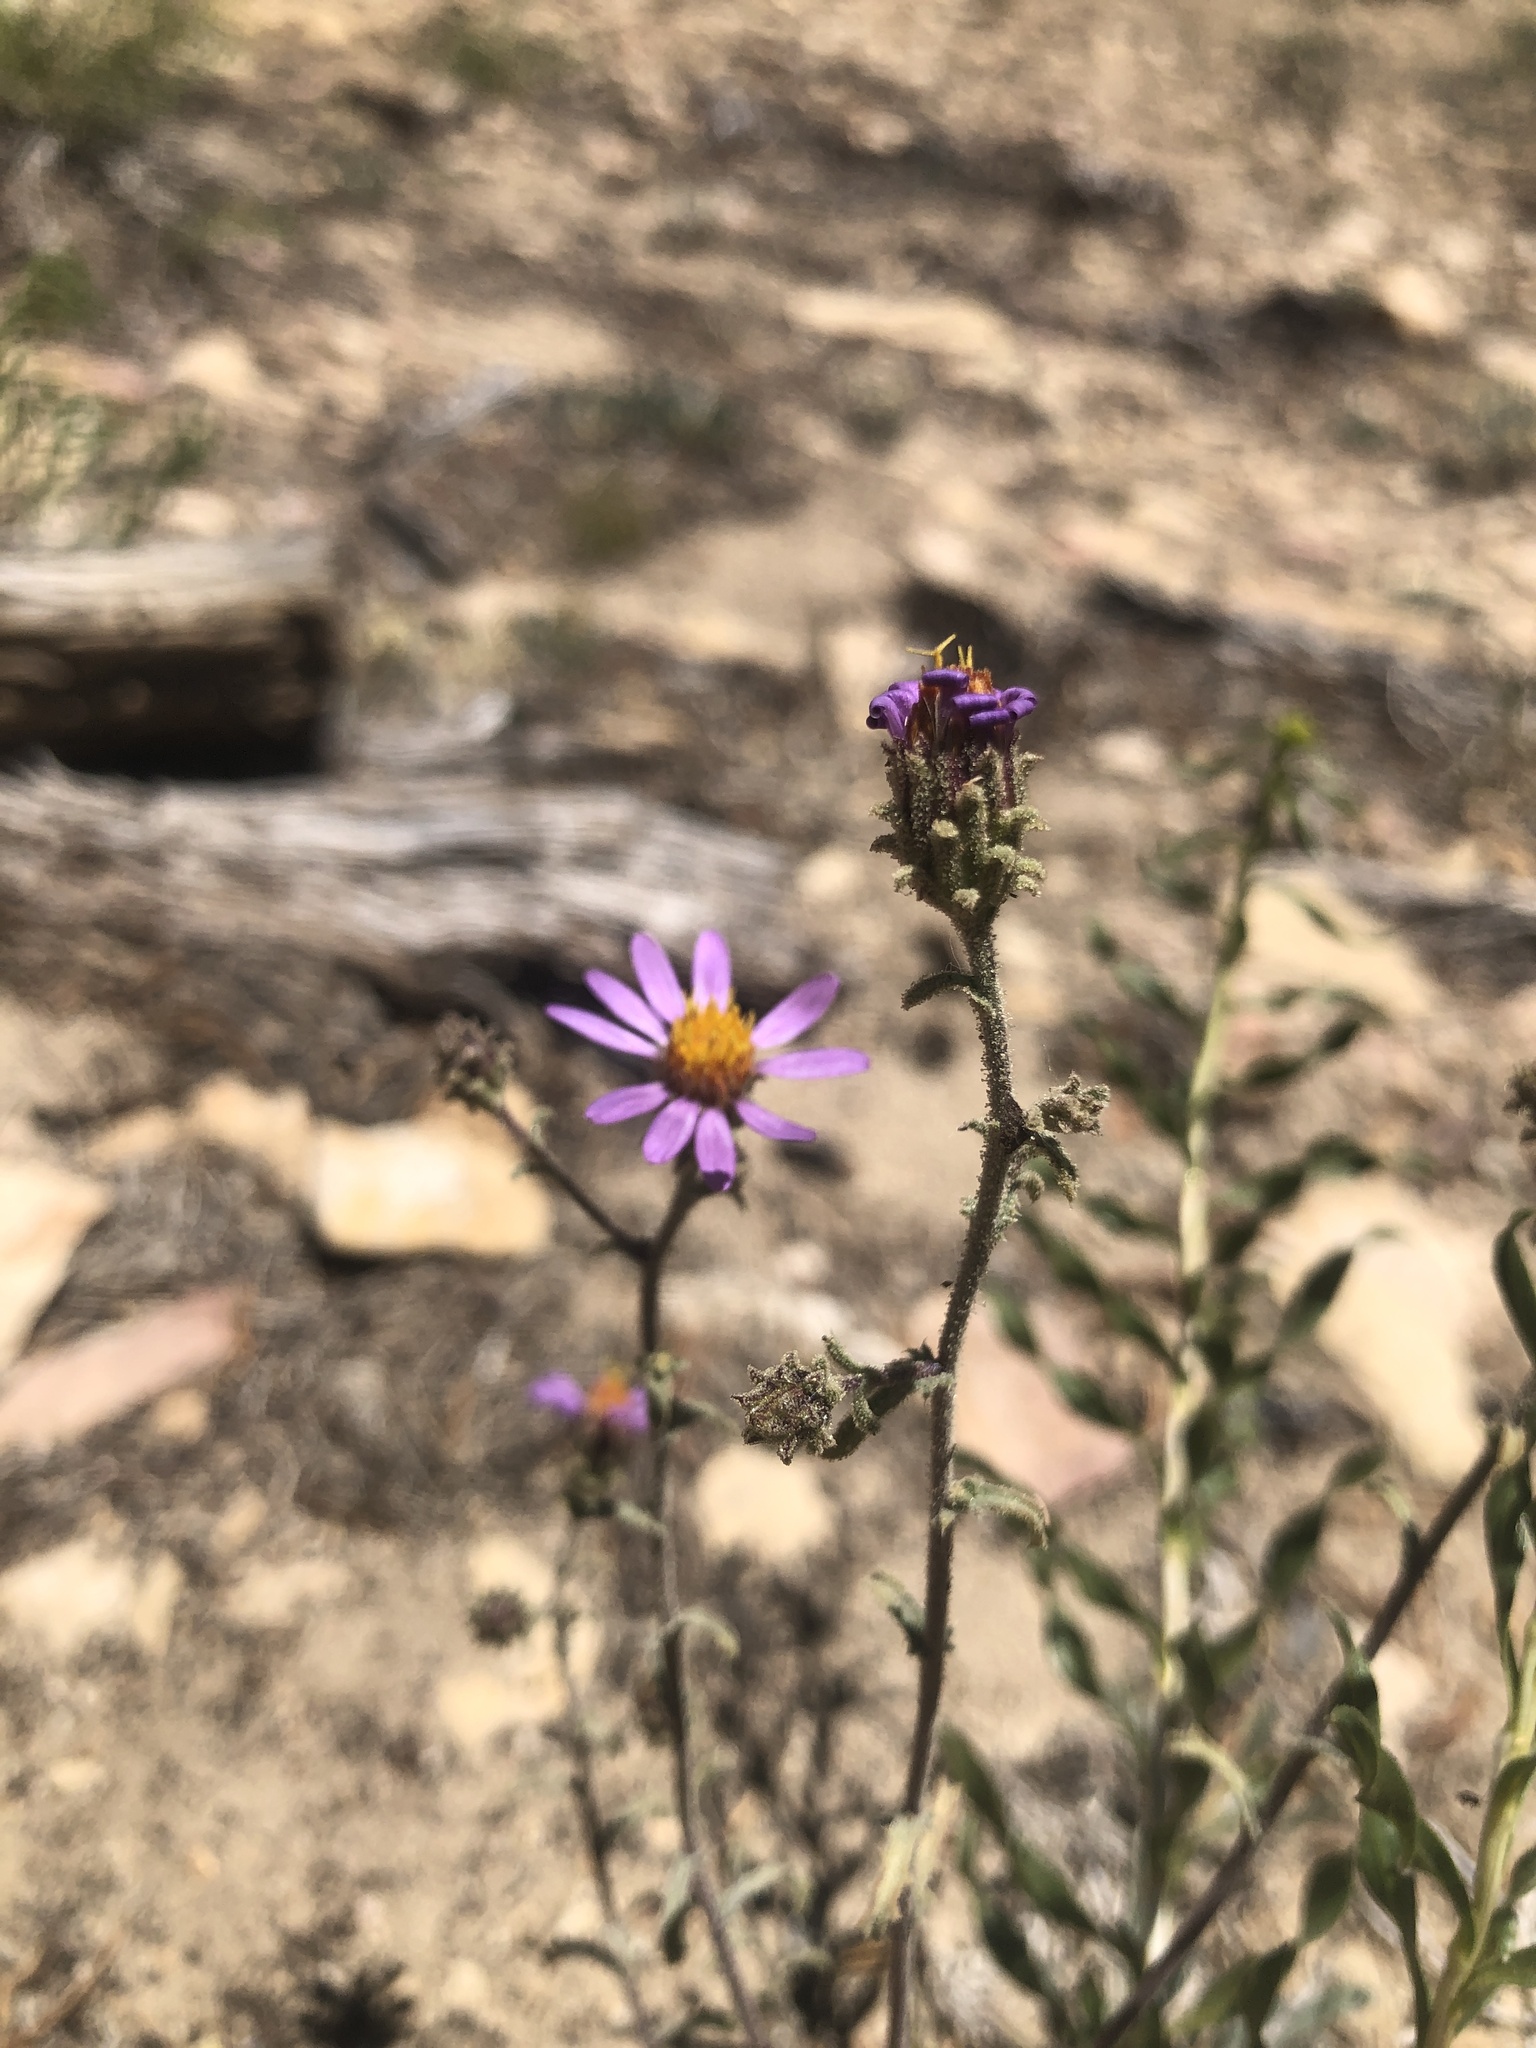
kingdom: Plantae
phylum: Tracheophyta
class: Magnoliopsida
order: Asterales
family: Asteraceae
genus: Dieteria
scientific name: Dieteria canescens
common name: Hoary-aster
